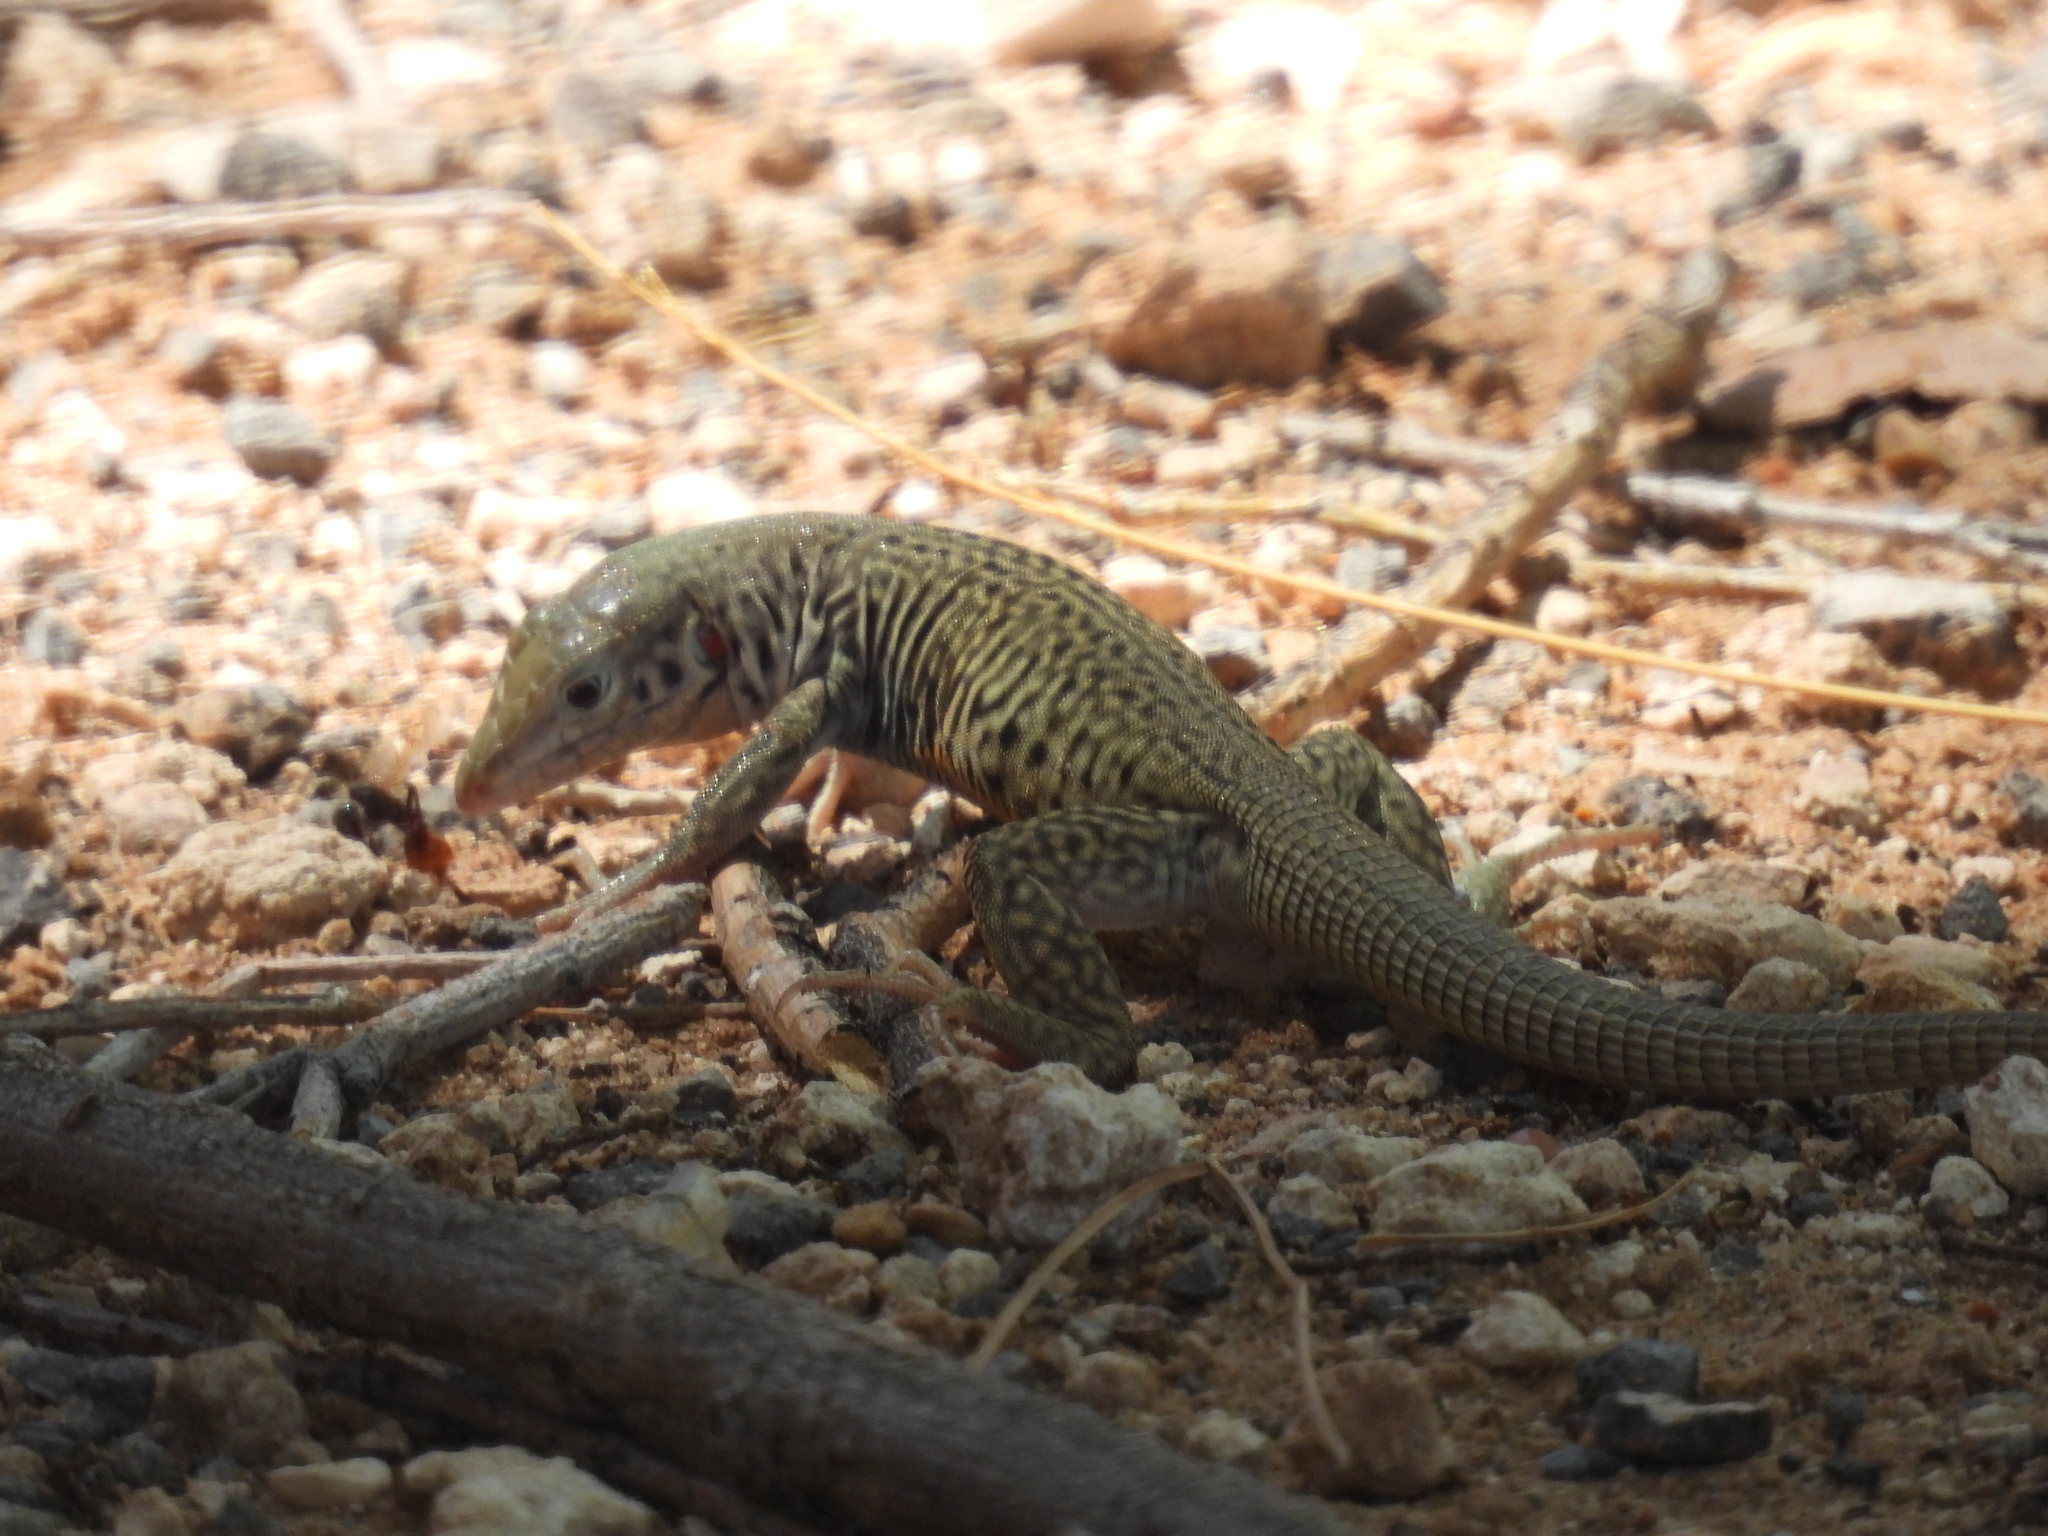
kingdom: Animalia
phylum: Chordata
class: Squamata
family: Teiidae
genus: Aspidoscelis
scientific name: Aspidoscelis marmoratus
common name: Eastern marbled whiptail [reticuloriens]
